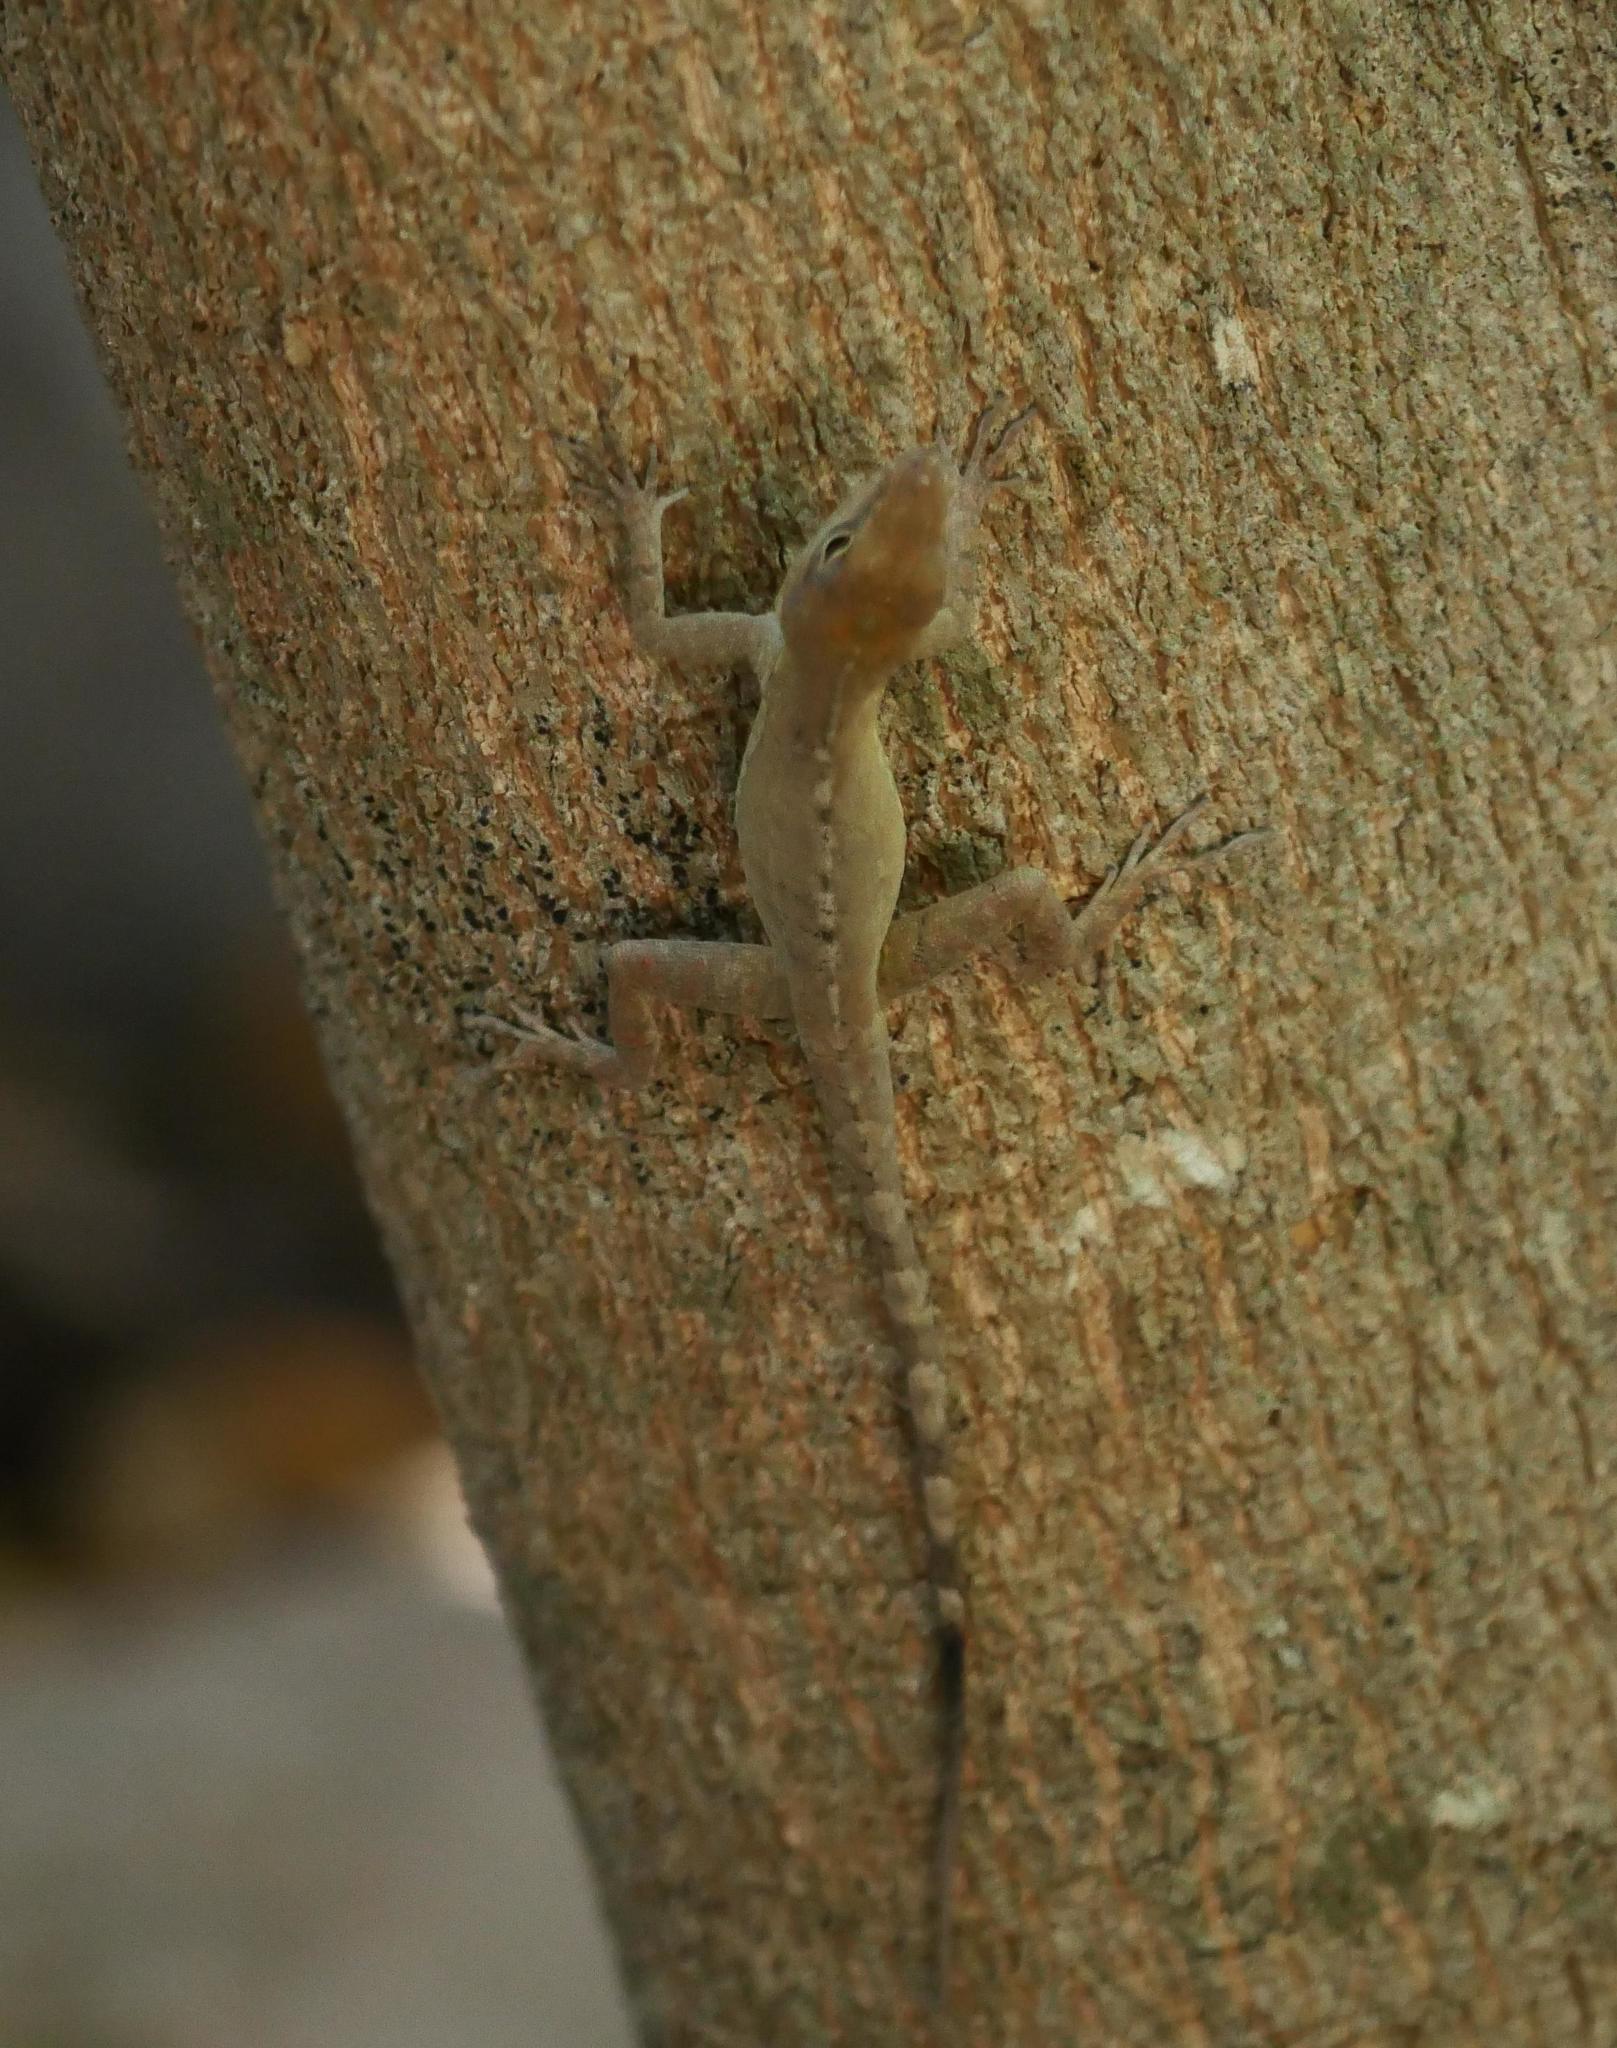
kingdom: Animalia
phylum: Chordata
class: Squamata
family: Dactyloidae
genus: Anolis
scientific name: Anolis scriptus
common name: Silver key anole
